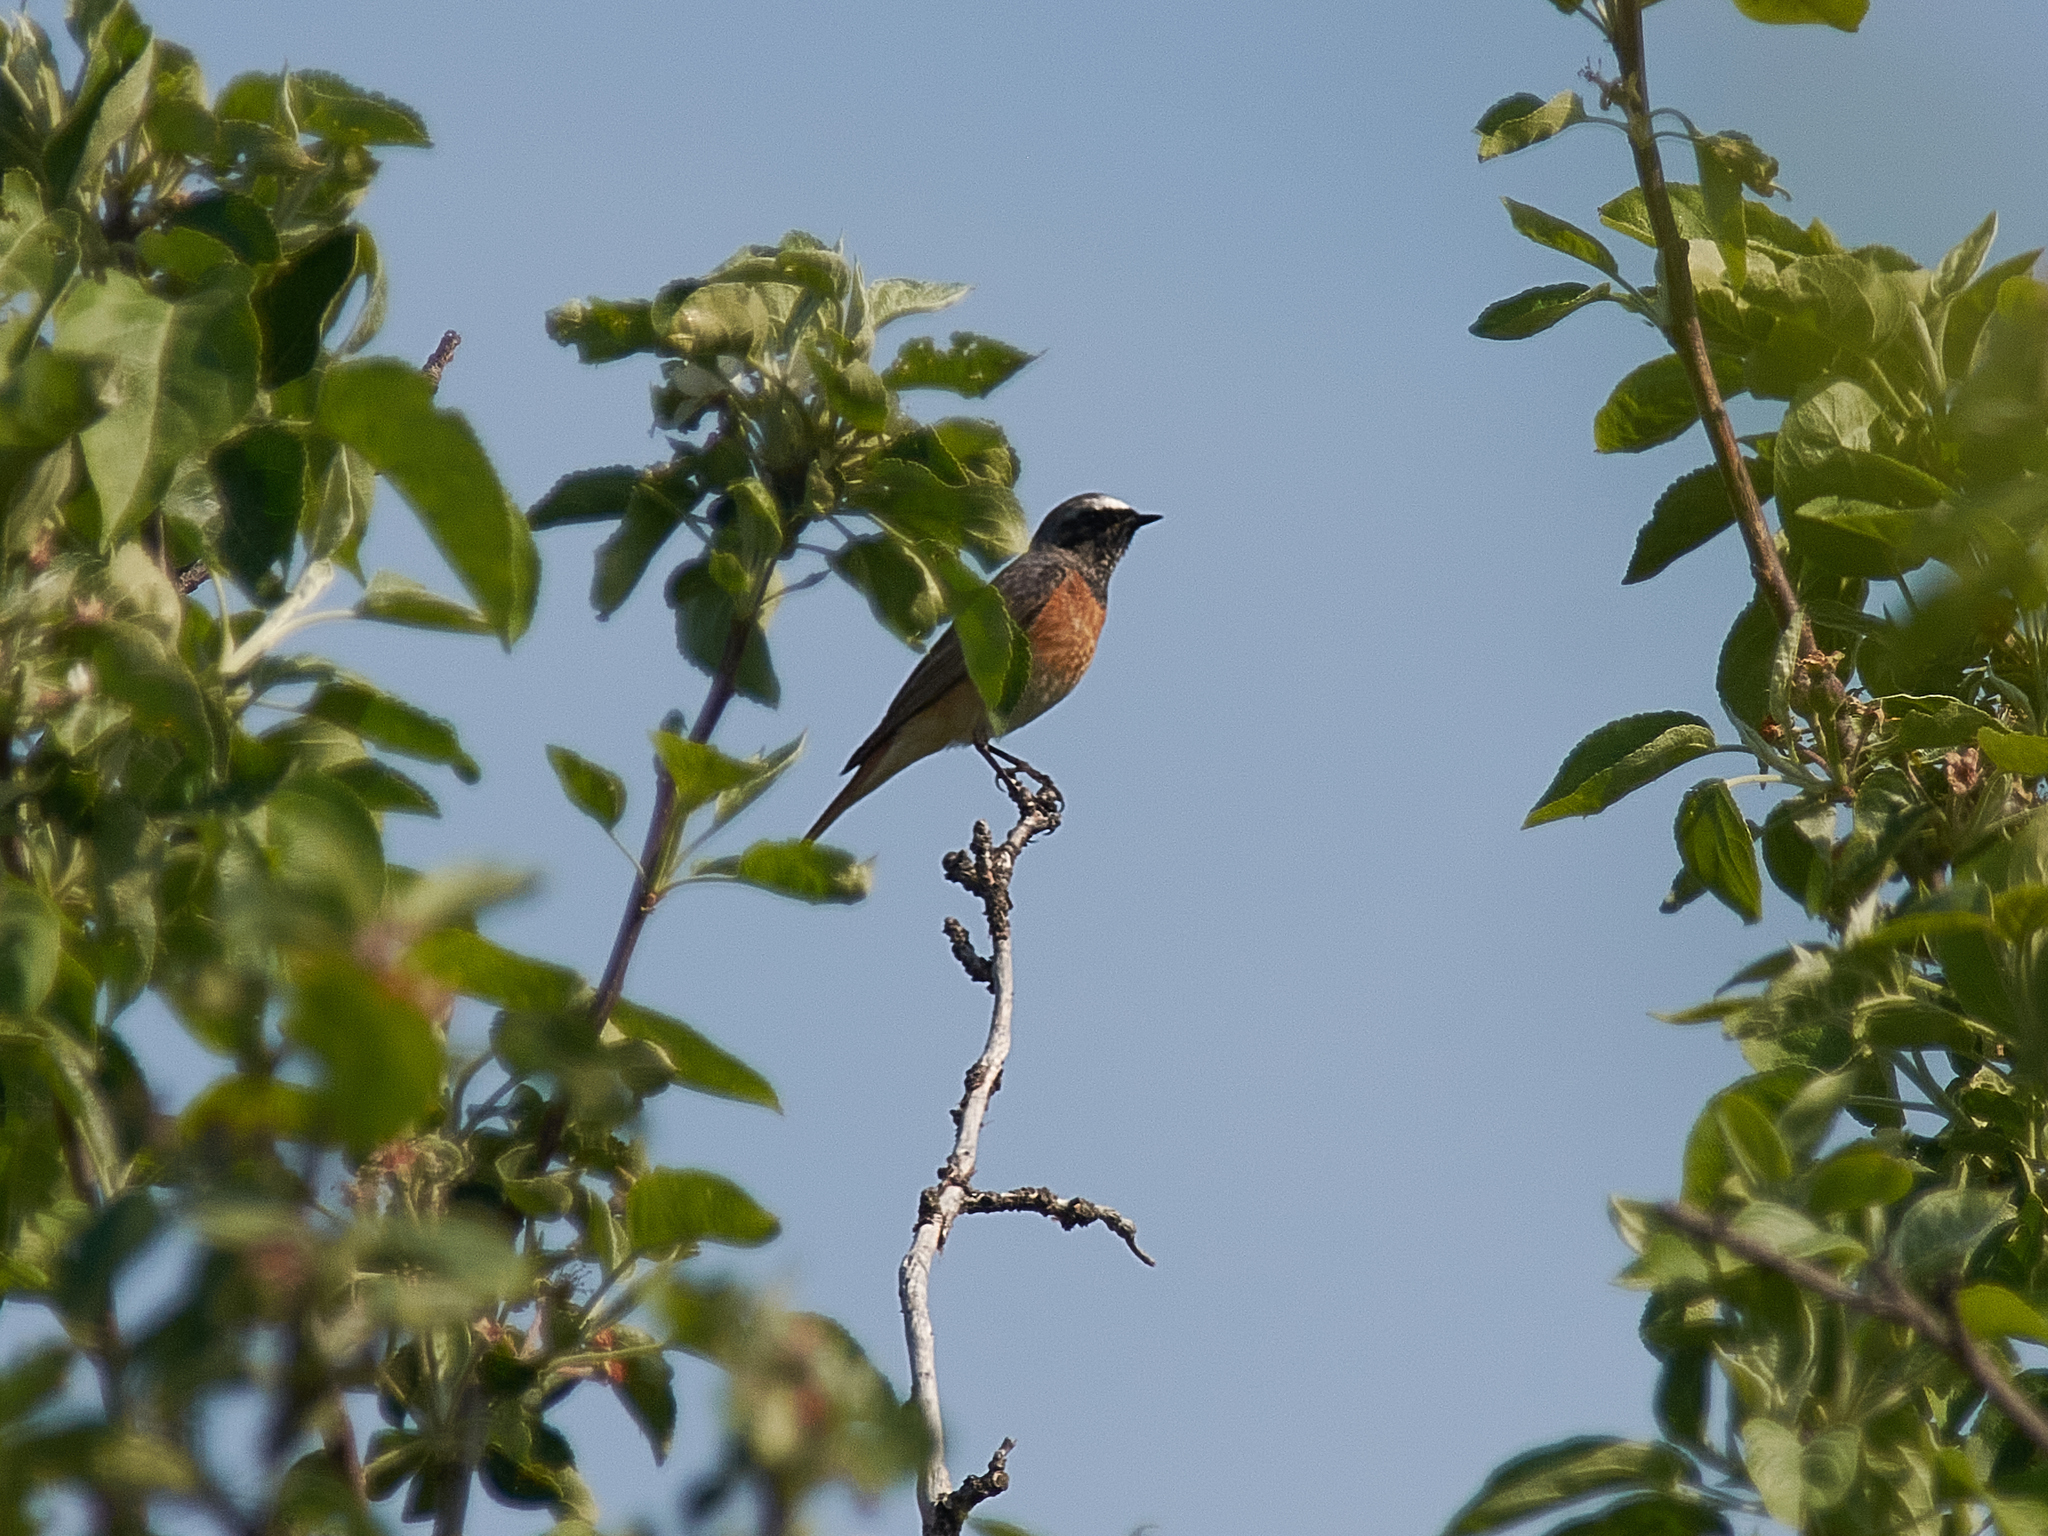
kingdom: Animalia
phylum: Chordata
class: Aves
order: Passeriformes
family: Muscicapidae
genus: Phoenicurus
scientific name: Phoenicurus phoenicurus
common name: Common redstart
